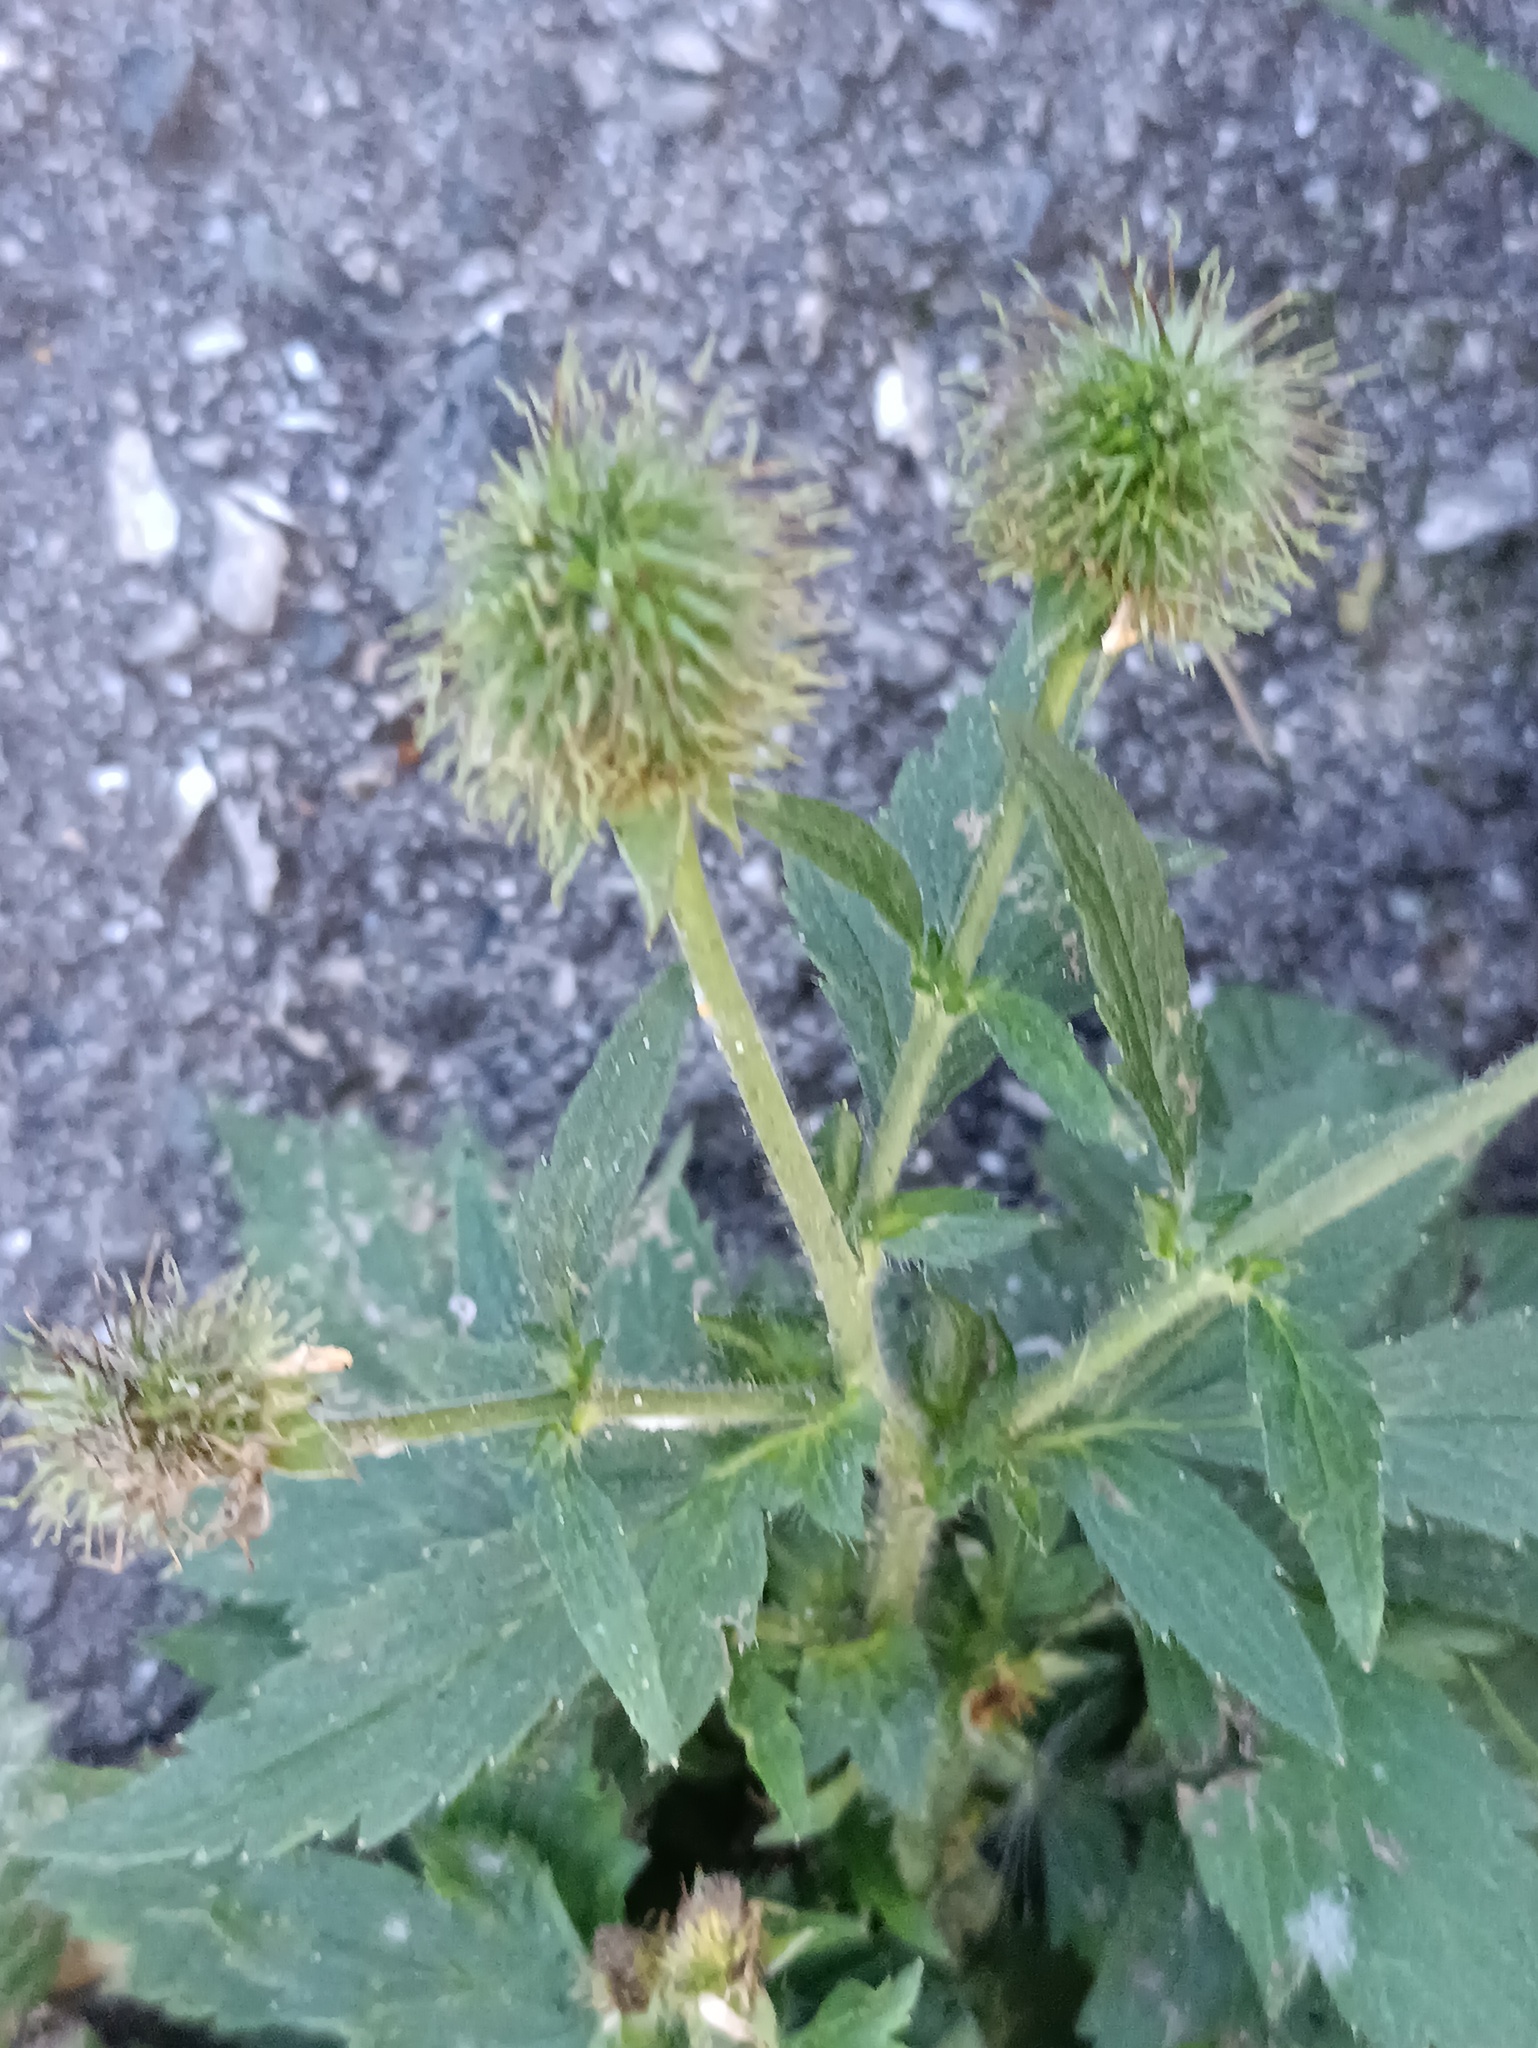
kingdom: Plantae
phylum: Tracheophyta
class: Magnoliopsida
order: Rosales
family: Rosaceae
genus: Geum
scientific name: Geum aleppicum
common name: Yellow avens
